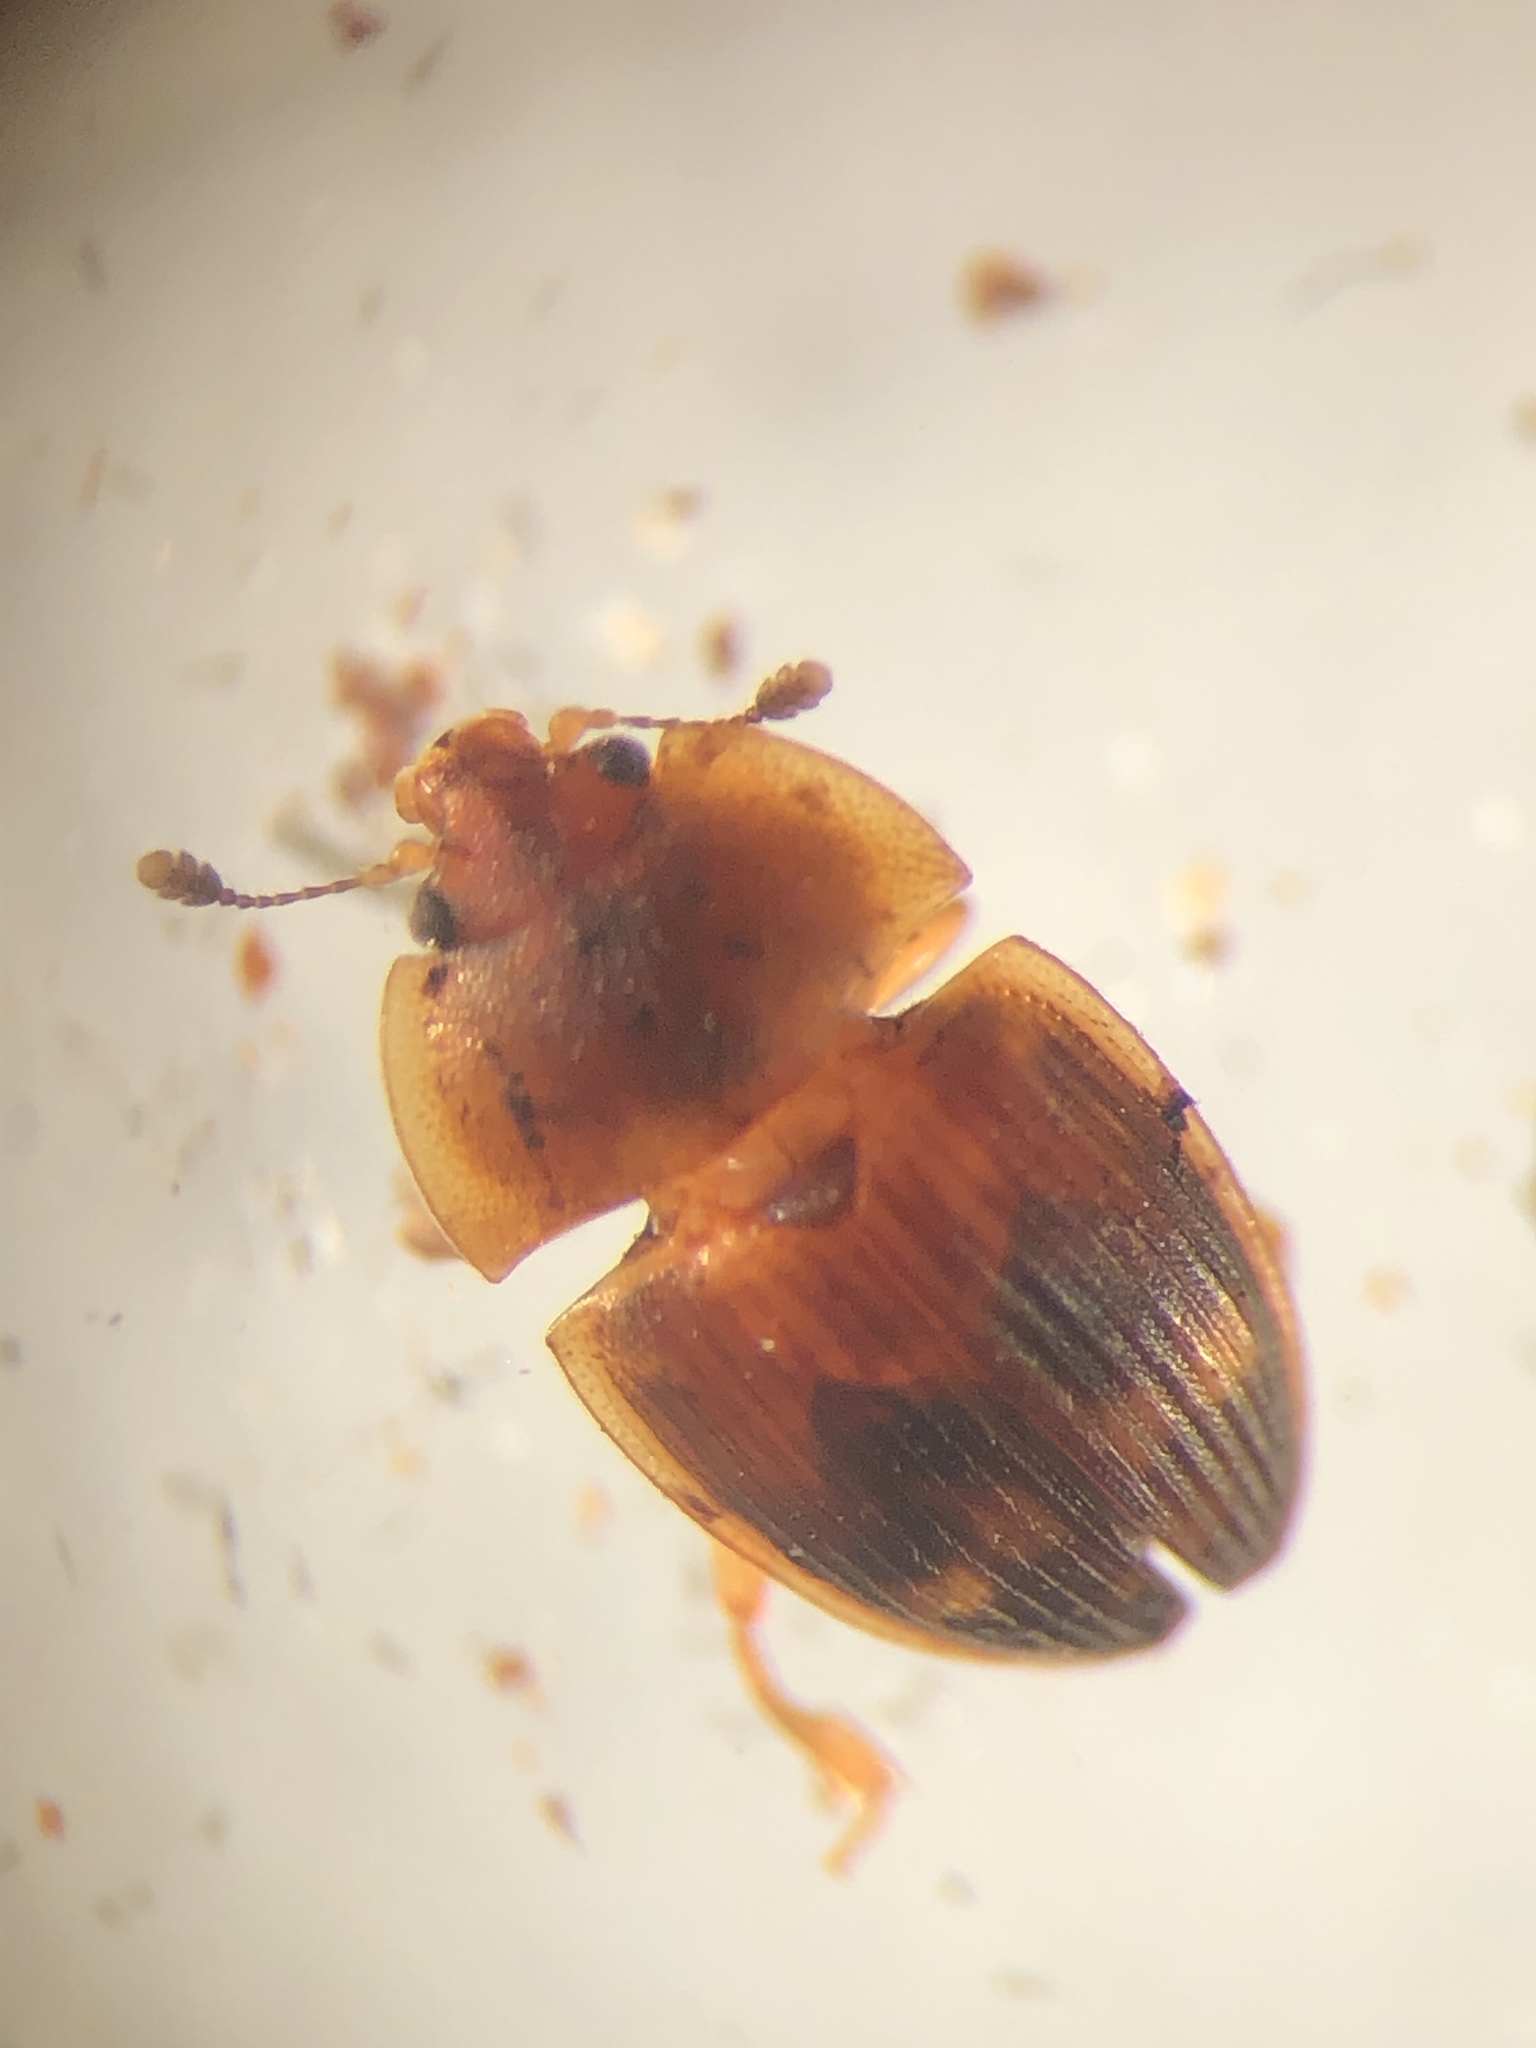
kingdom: Animalia
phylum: Arthropoda
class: Insecta
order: Coleoptera
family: Nitidulidae
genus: Stelidota
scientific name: Stelidota geminata
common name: Strawberry sap beetle
